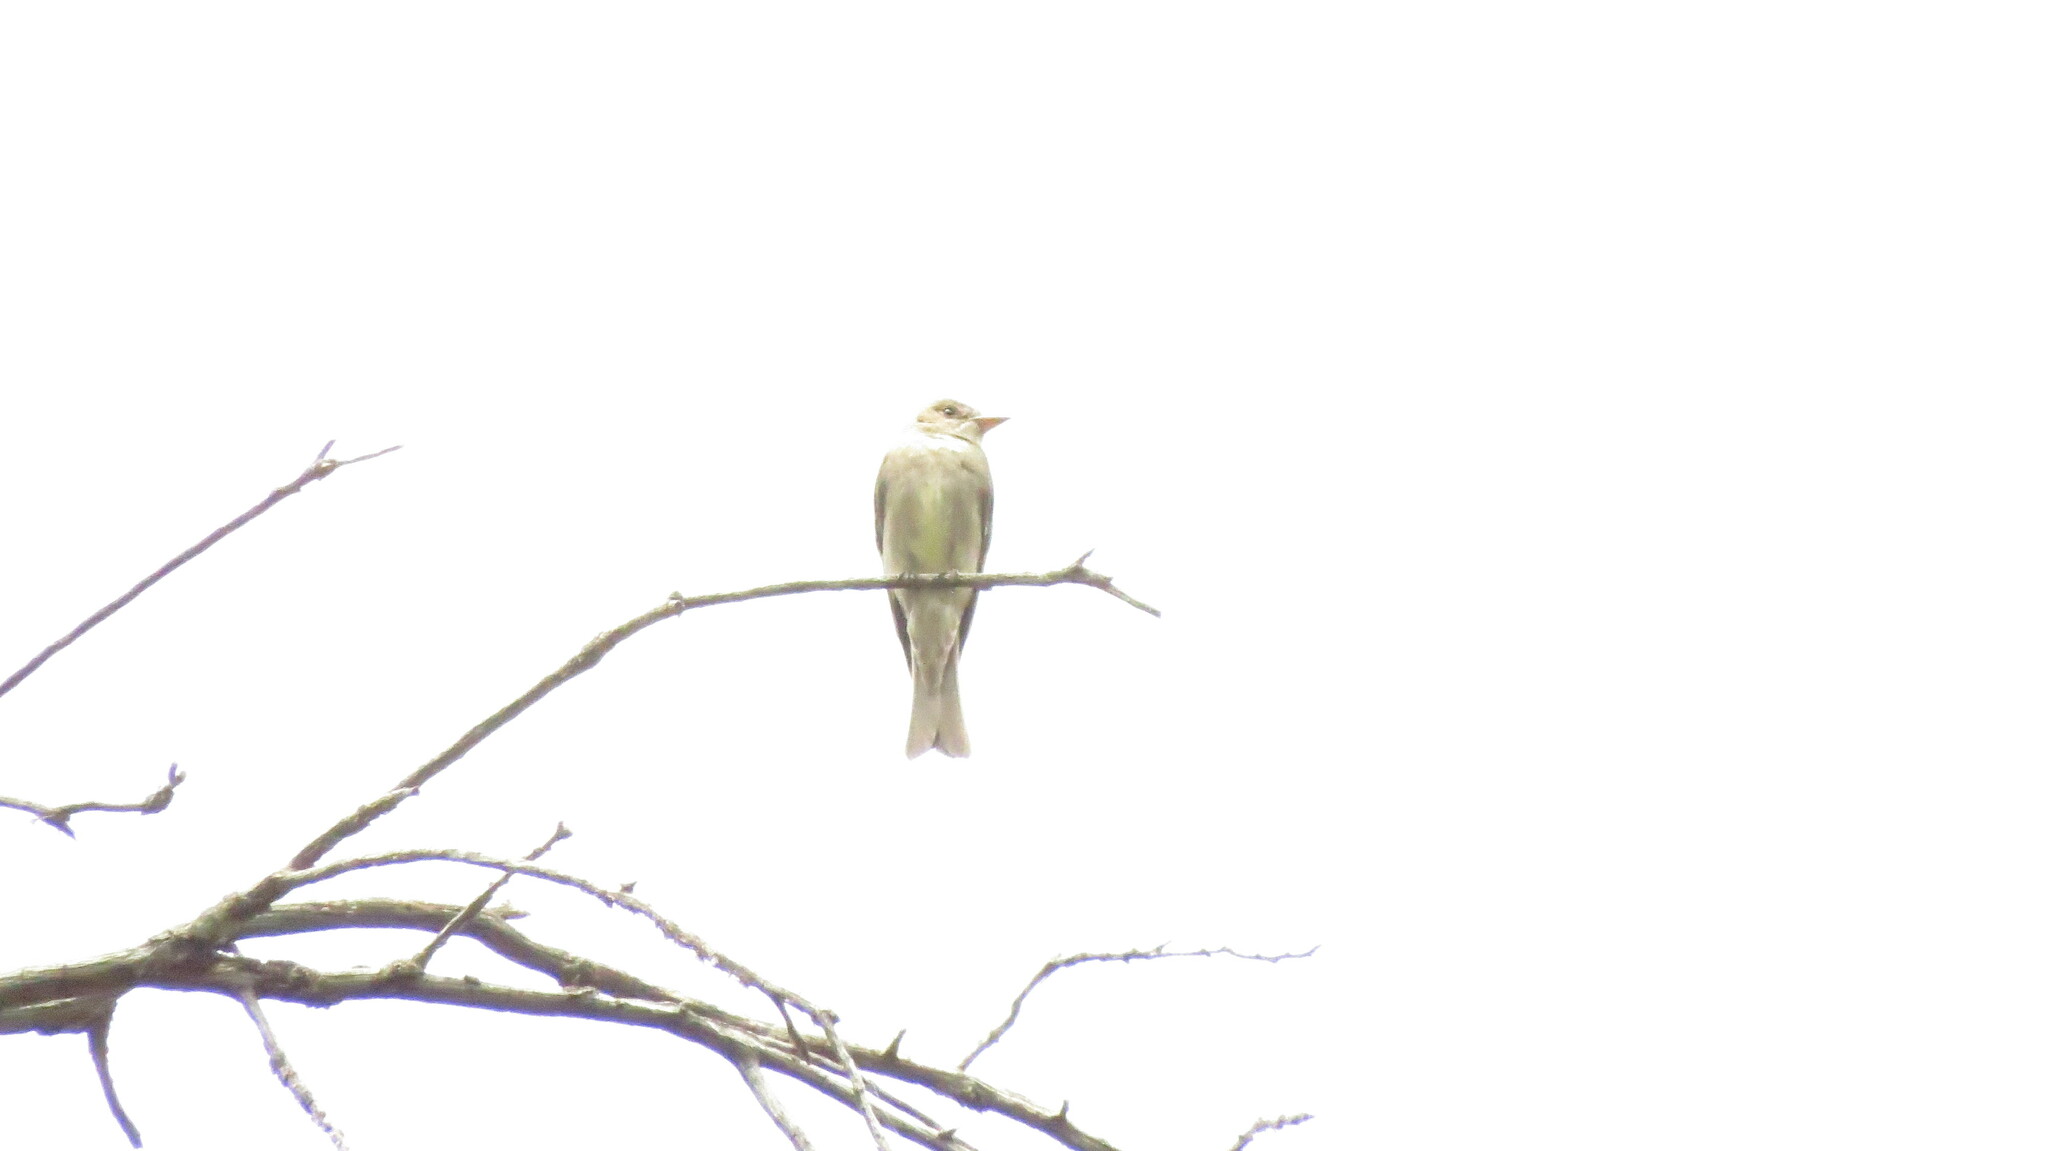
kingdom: Animalia
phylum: Chordata
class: Aves
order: Passeriformes
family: Tyrannidae
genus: Contopus
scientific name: Contopus sordidulus
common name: Western wood-pewee
